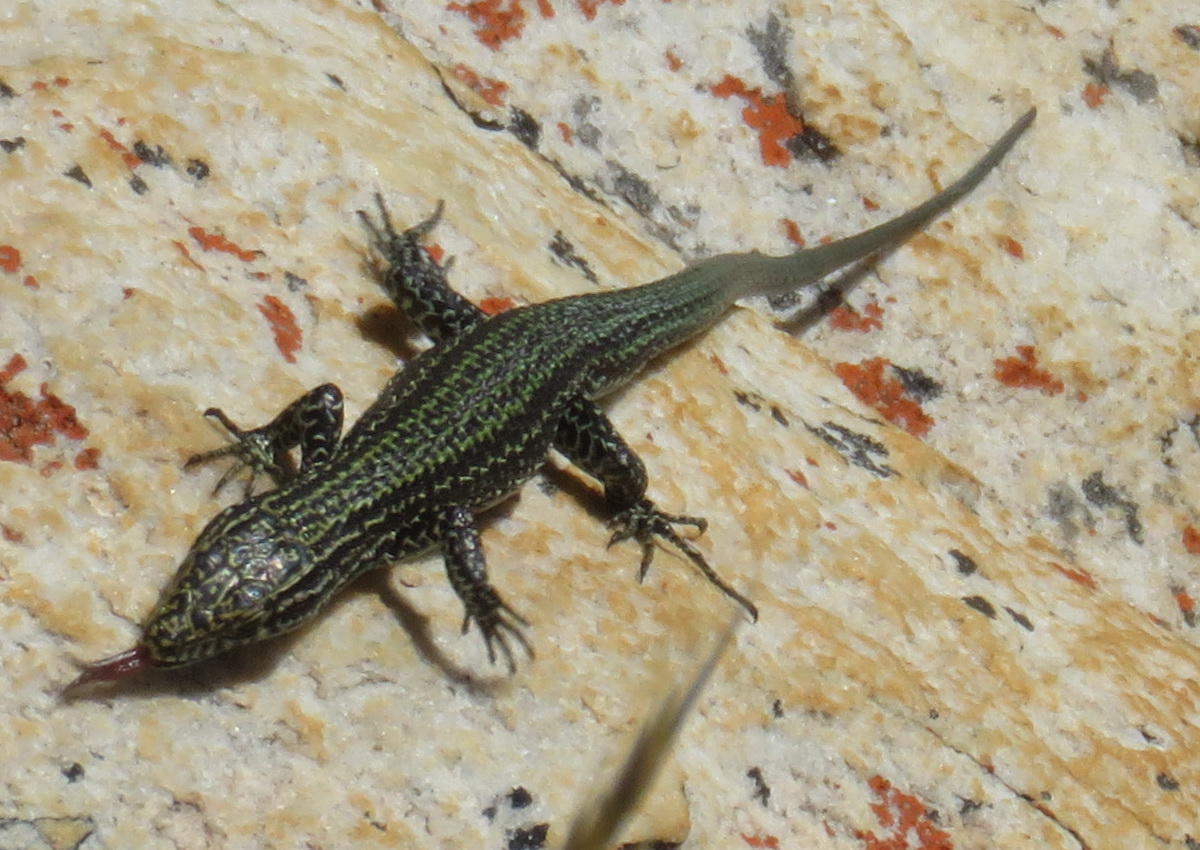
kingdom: Animalia
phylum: Chordata
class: Squamata
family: Lacertidae
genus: Tropidosaura
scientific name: Tropidosaura gularis
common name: Cape mountain lizard
